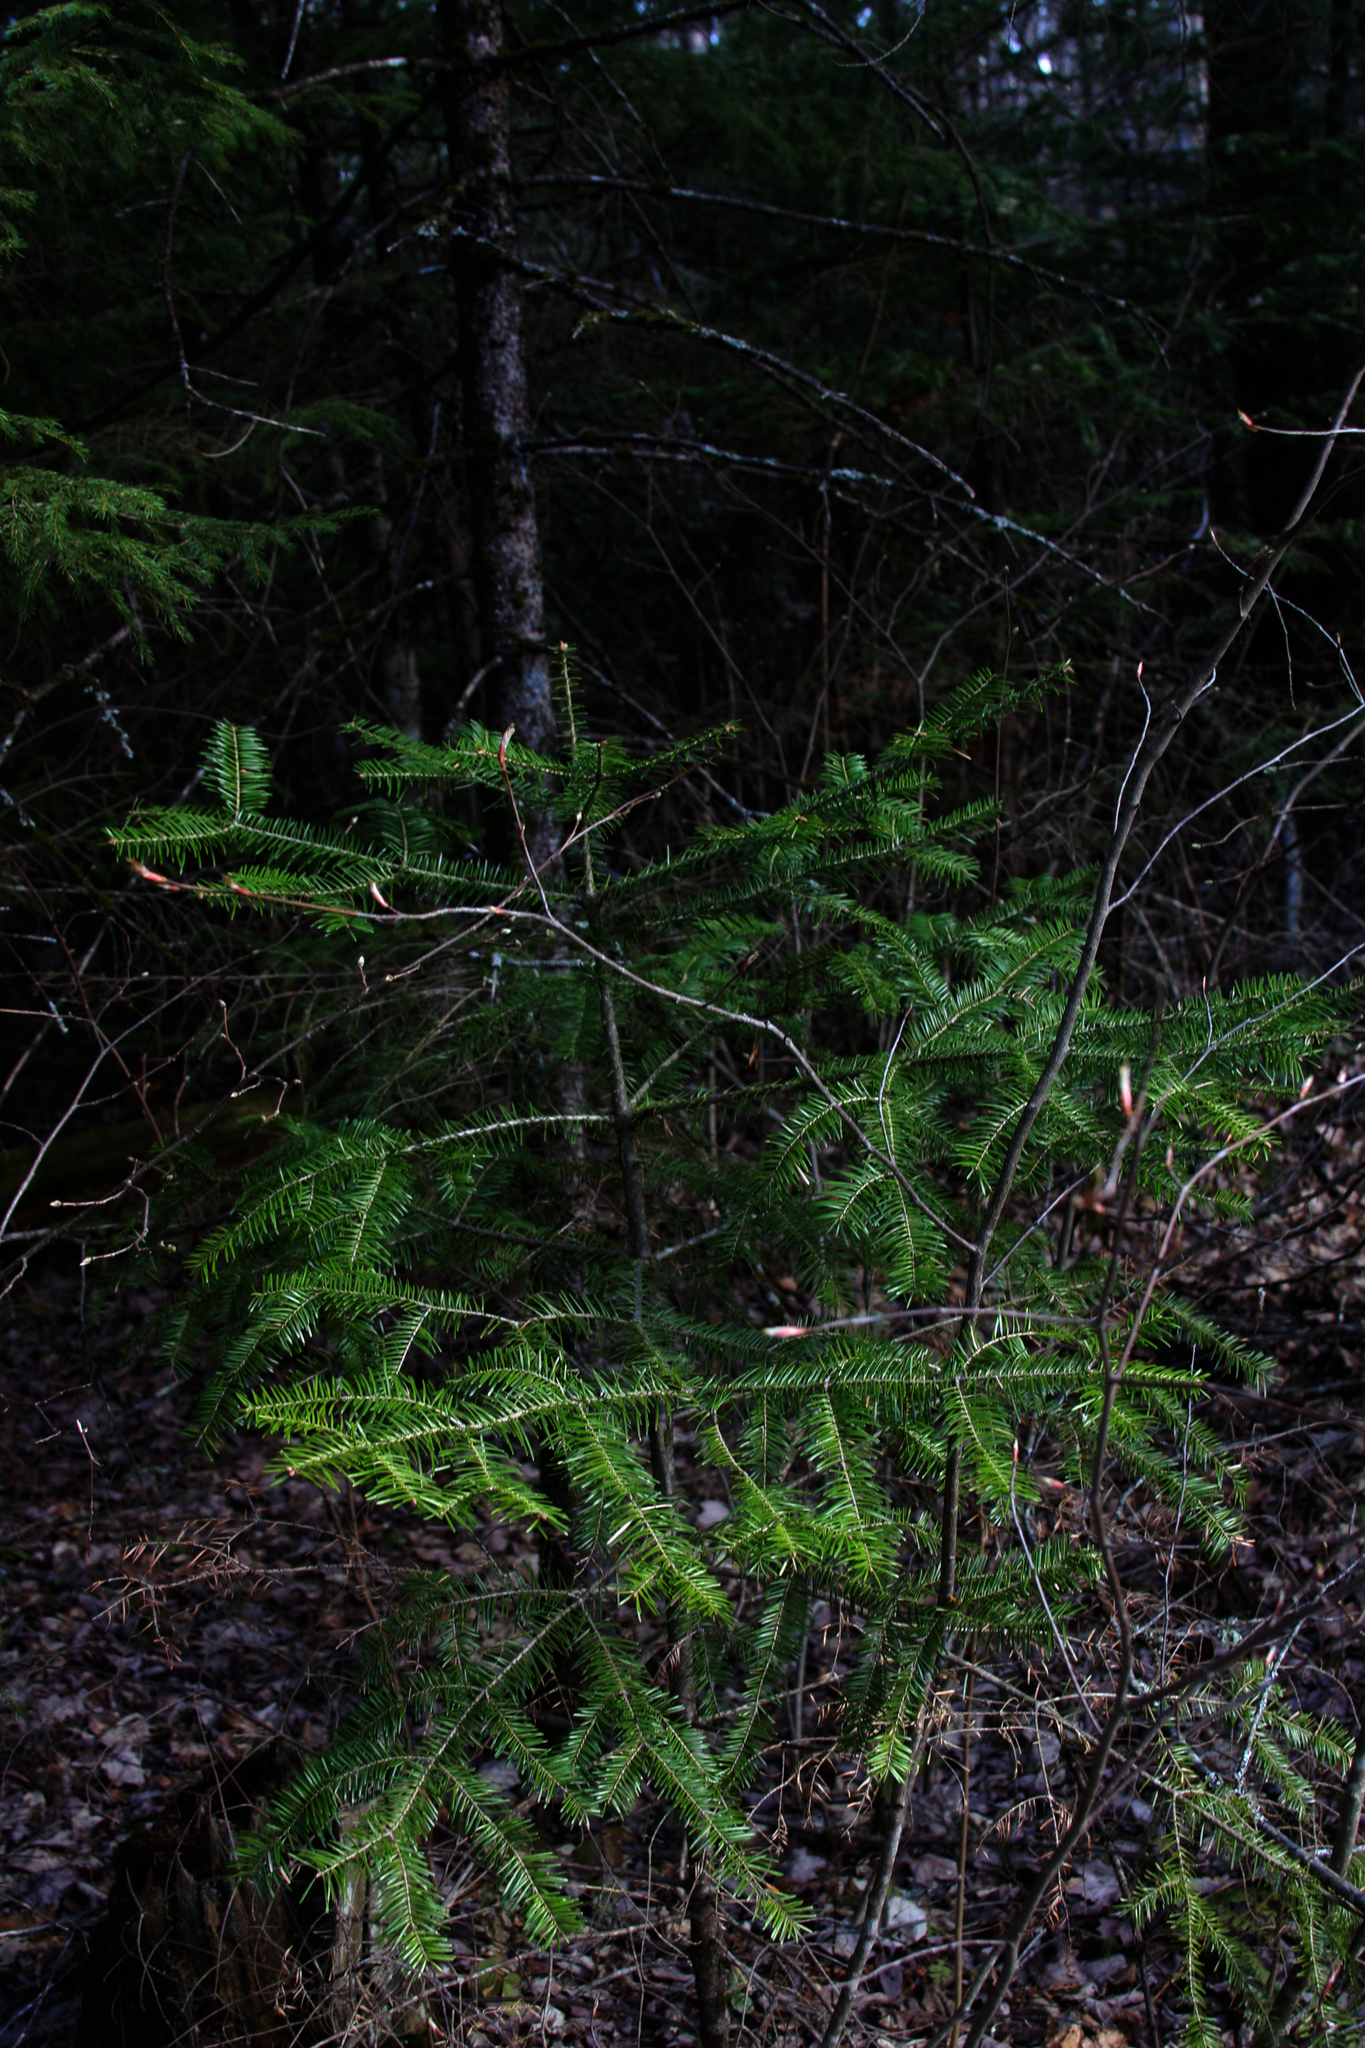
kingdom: Plantae
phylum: Tracheophyta
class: Pinopsida
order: Pinales
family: Pinaceae
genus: Abies
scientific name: Abies balsamea
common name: Balsam fir
